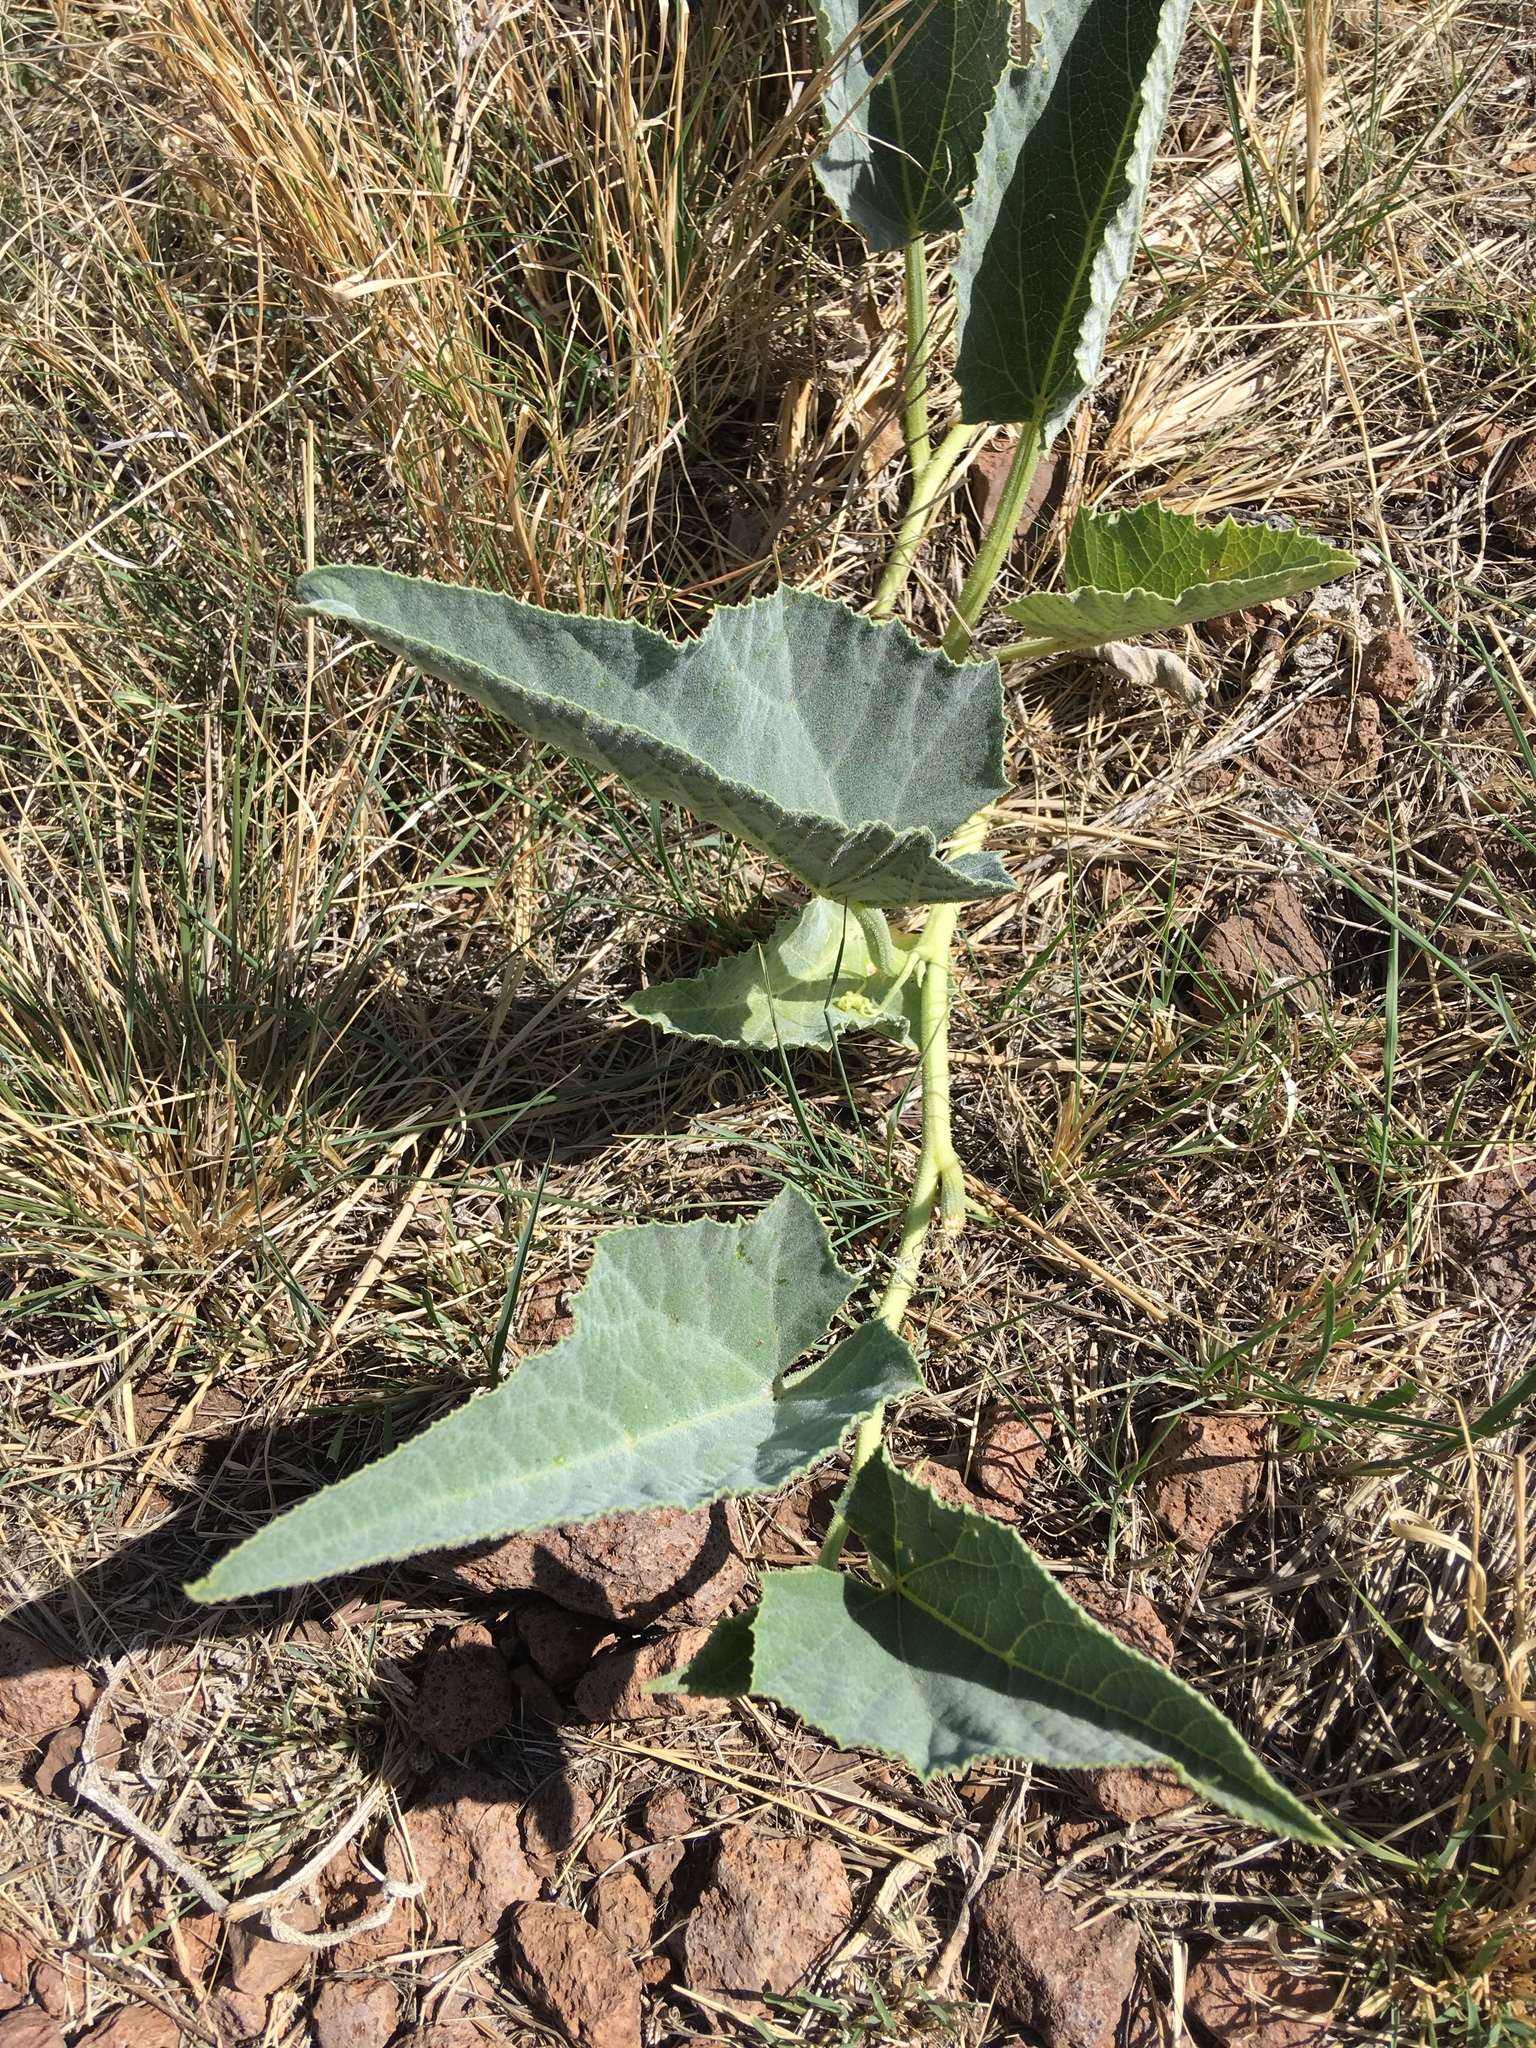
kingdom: Plantae
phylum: Tracheophyta
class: Magnoliopsida
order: Cucurbitales
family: Cucurbitaceae
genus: Cucurbita
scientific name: Cucurbita foetidissima
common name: Buffalo gourd
